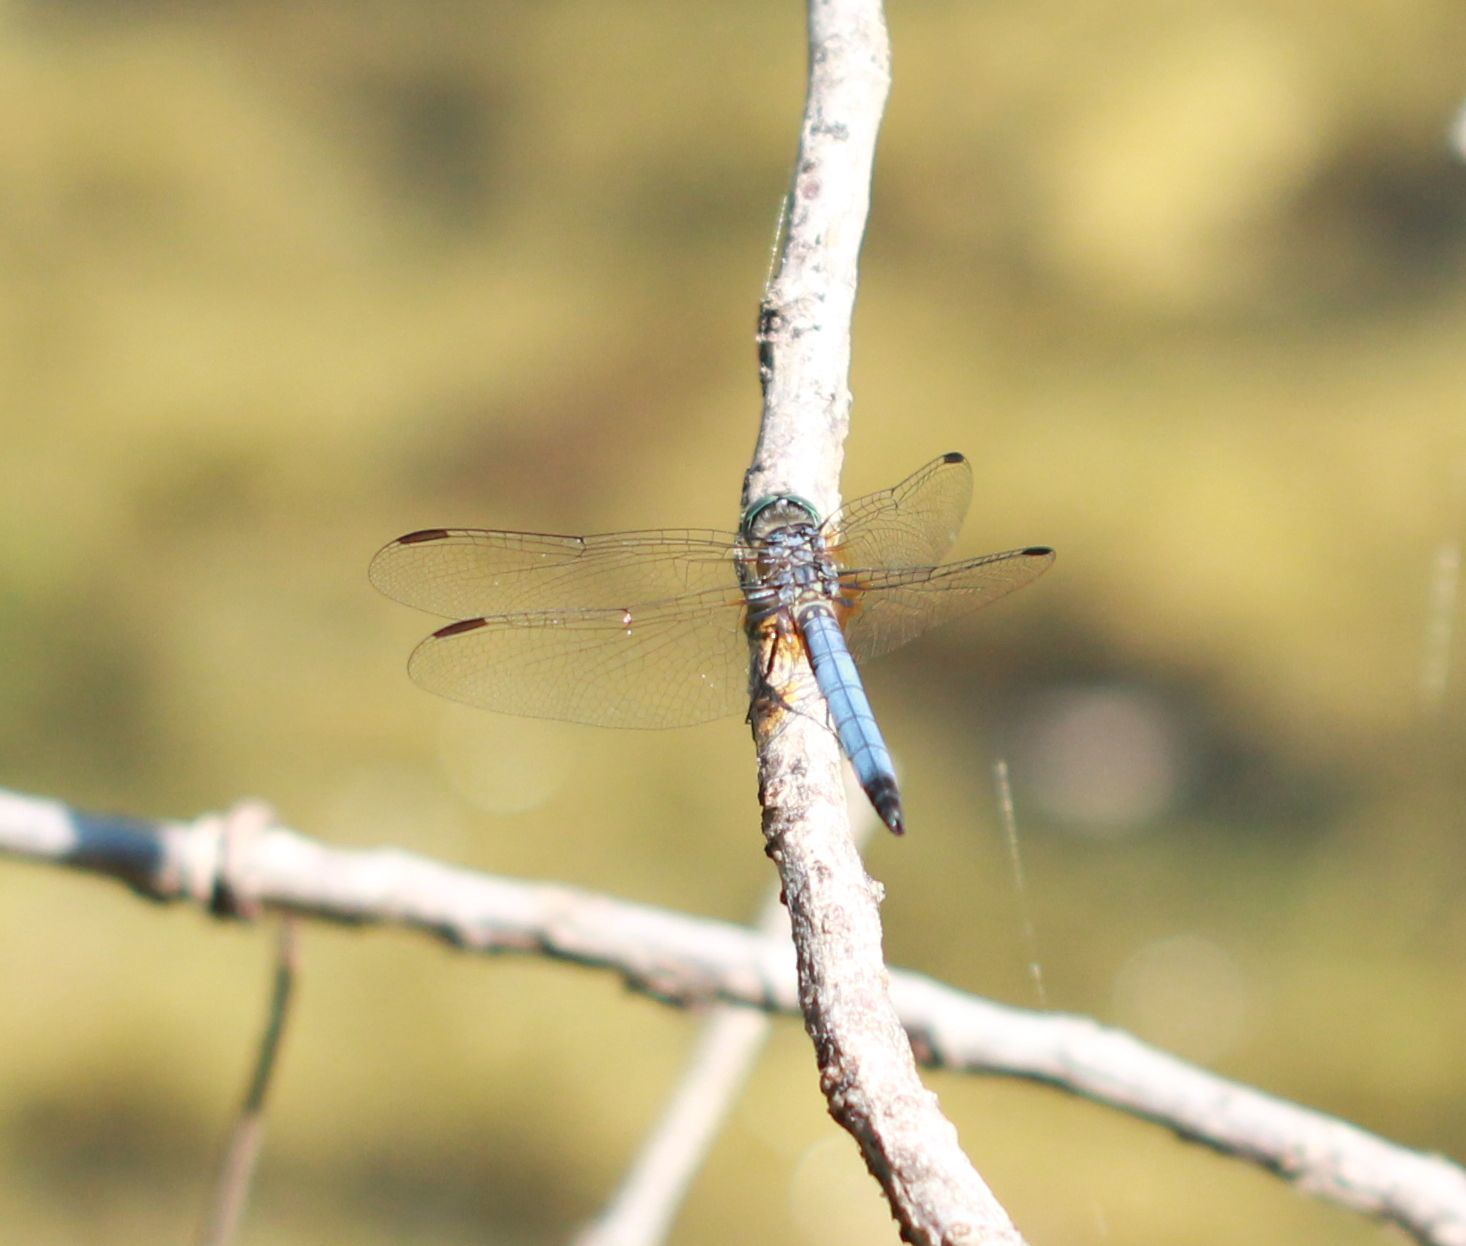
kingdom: Animalia
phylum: Arthropoda
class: Insecta
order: Odonata
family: Libellulidae
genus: Pachydiplax
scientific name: Pachydiplax longipennis
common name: Blue dasher
